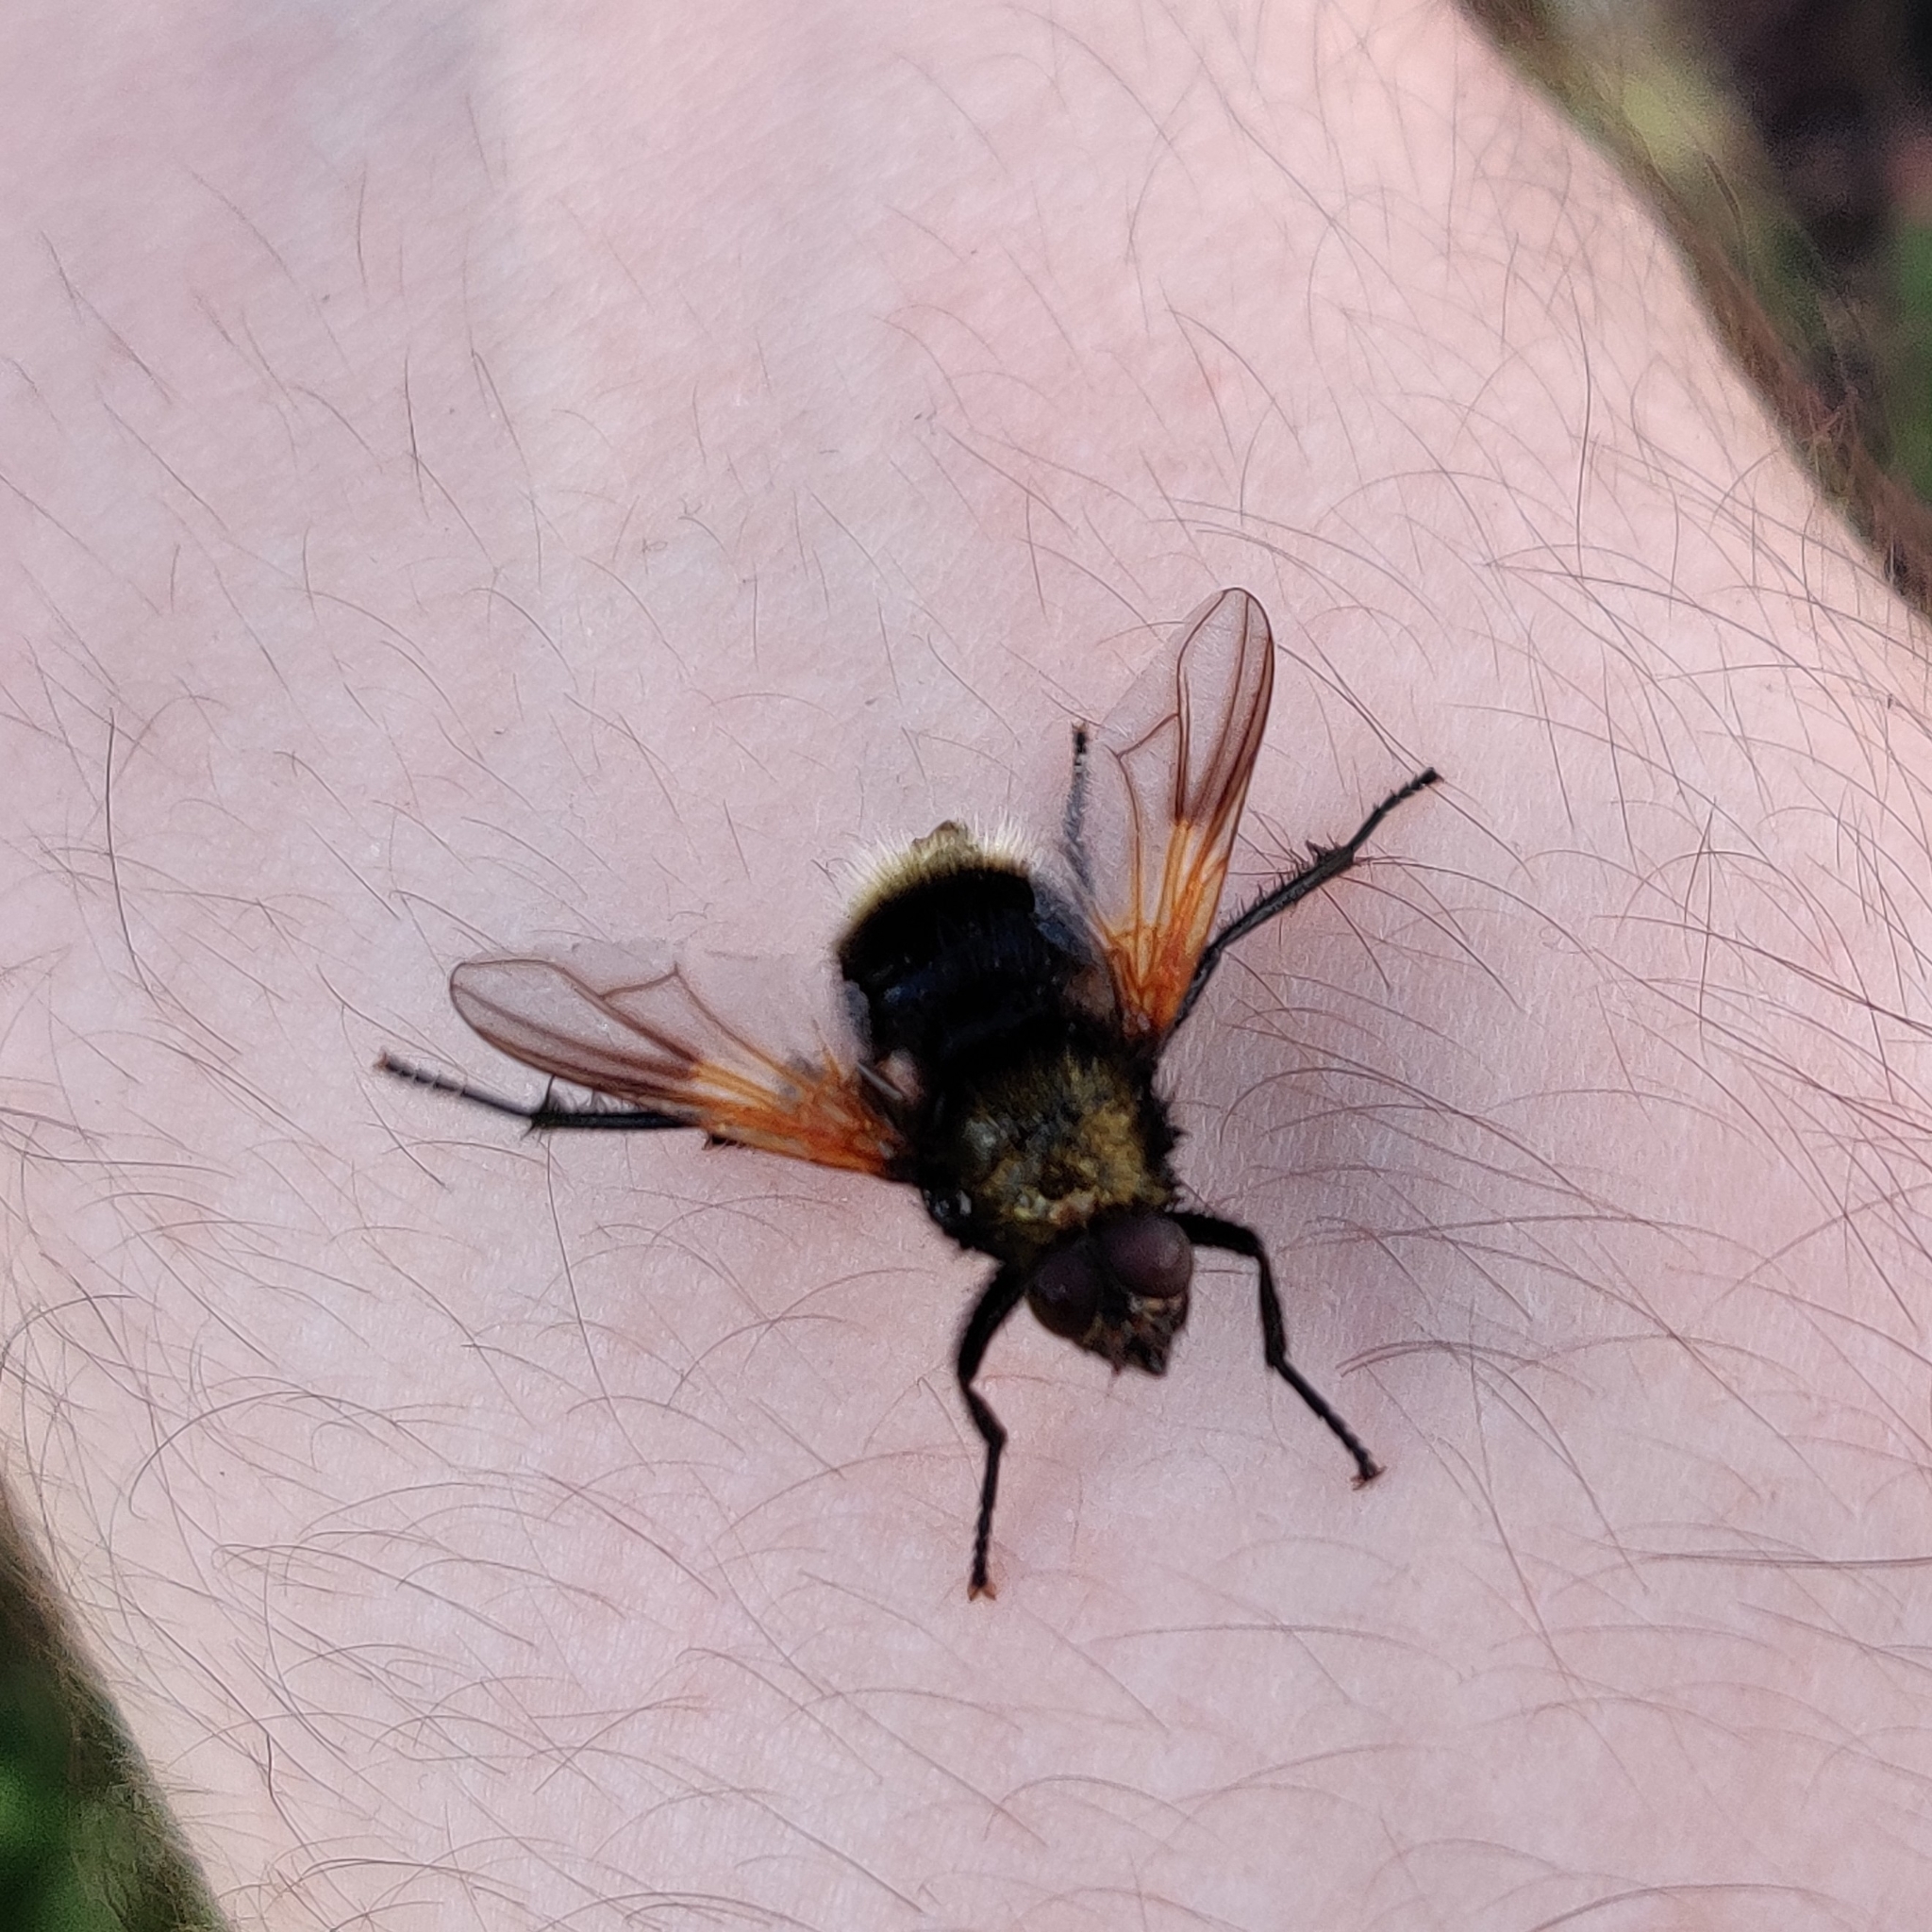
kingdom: Animalia
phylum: Arthropoda
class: Insecta
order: Diptera
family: Muscidae
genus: Mesembrina
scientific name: Mesembrina mystacea
